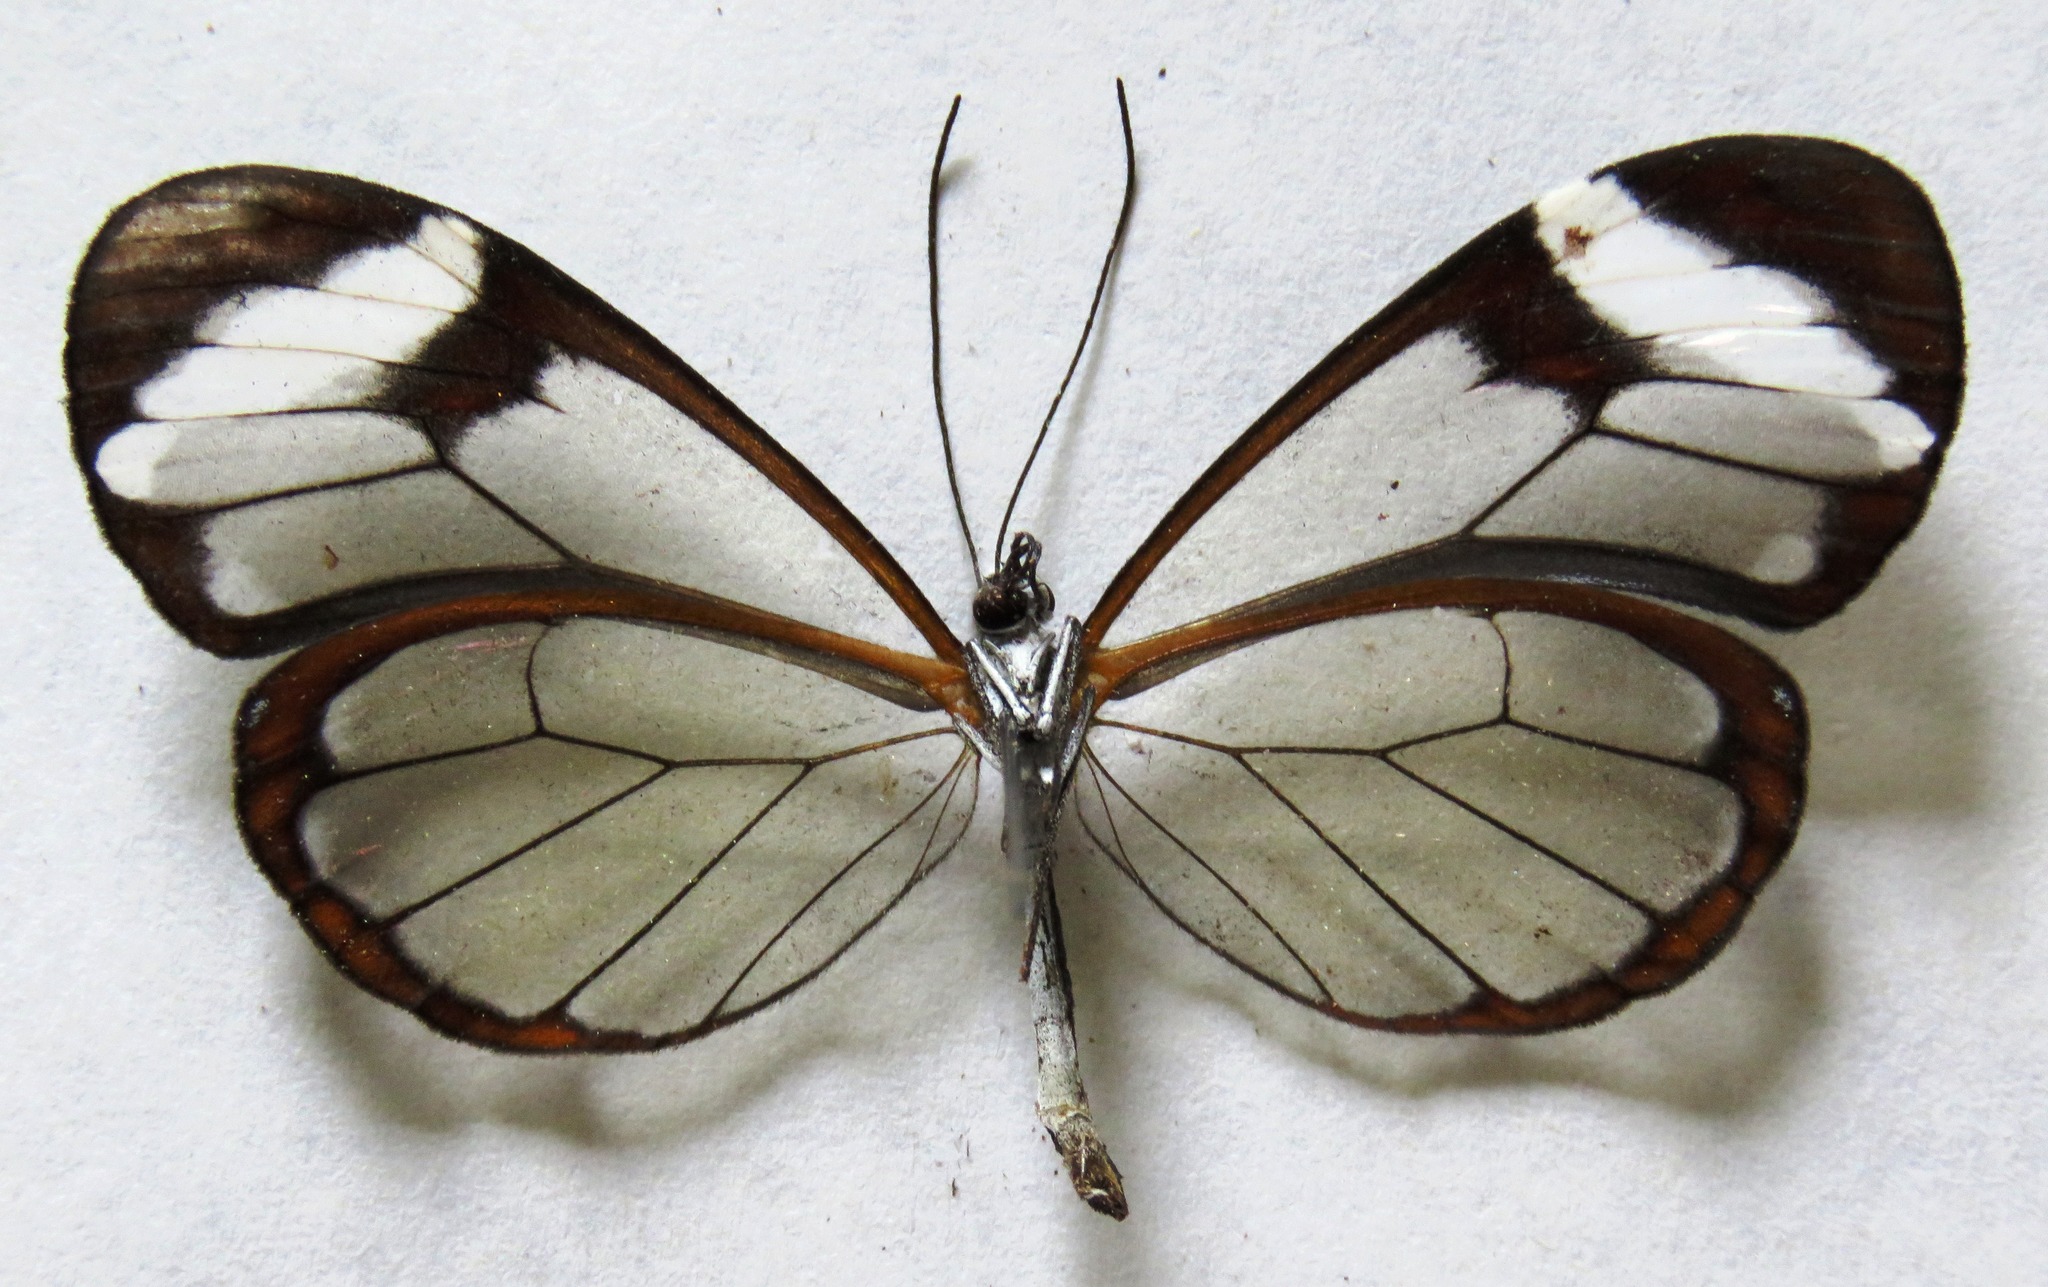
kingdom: Animalia
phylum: Arthropoda
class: Insecta
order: Lepidoptera
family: Nymphalidae
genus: Greta
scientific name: Greta morgane
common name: Thick-tipped greta
